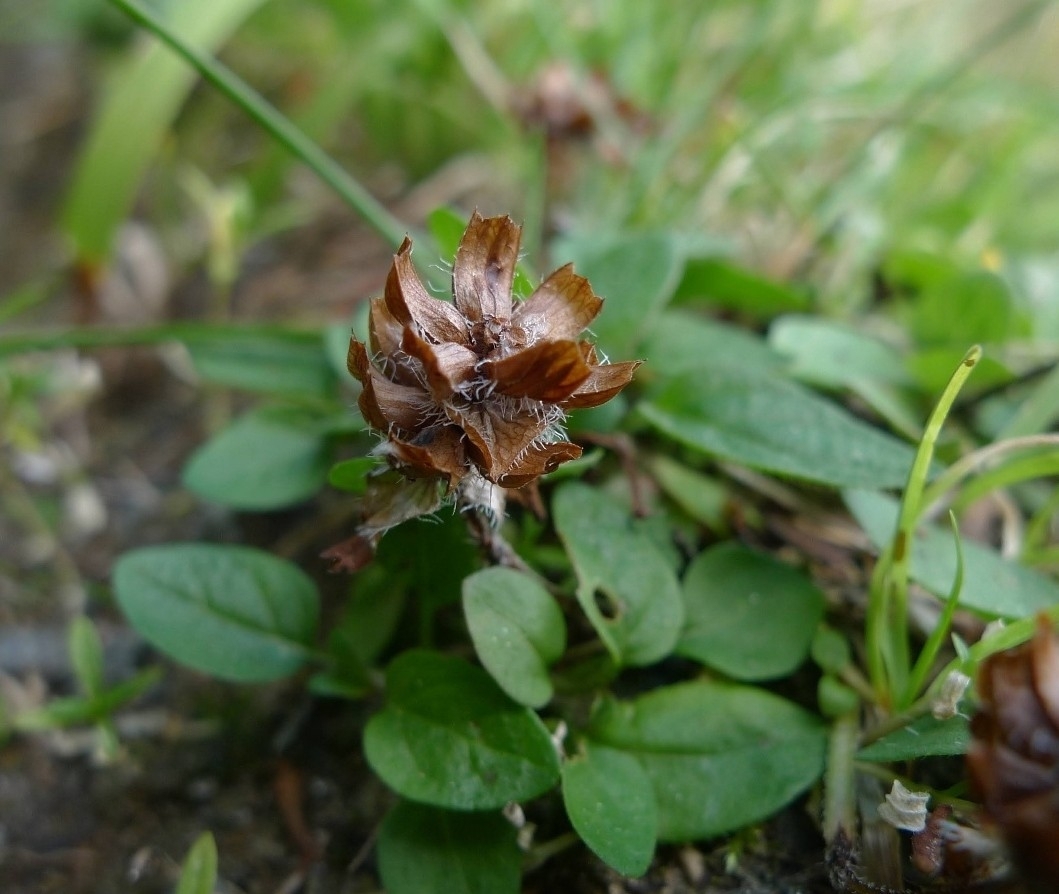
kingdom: Plantae
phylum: Tracheophyta
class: Magnoliopsida
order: Lamiales
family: Lamiaceae
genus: Prunella
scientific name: Prunella vulgaris
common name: Heal-all
